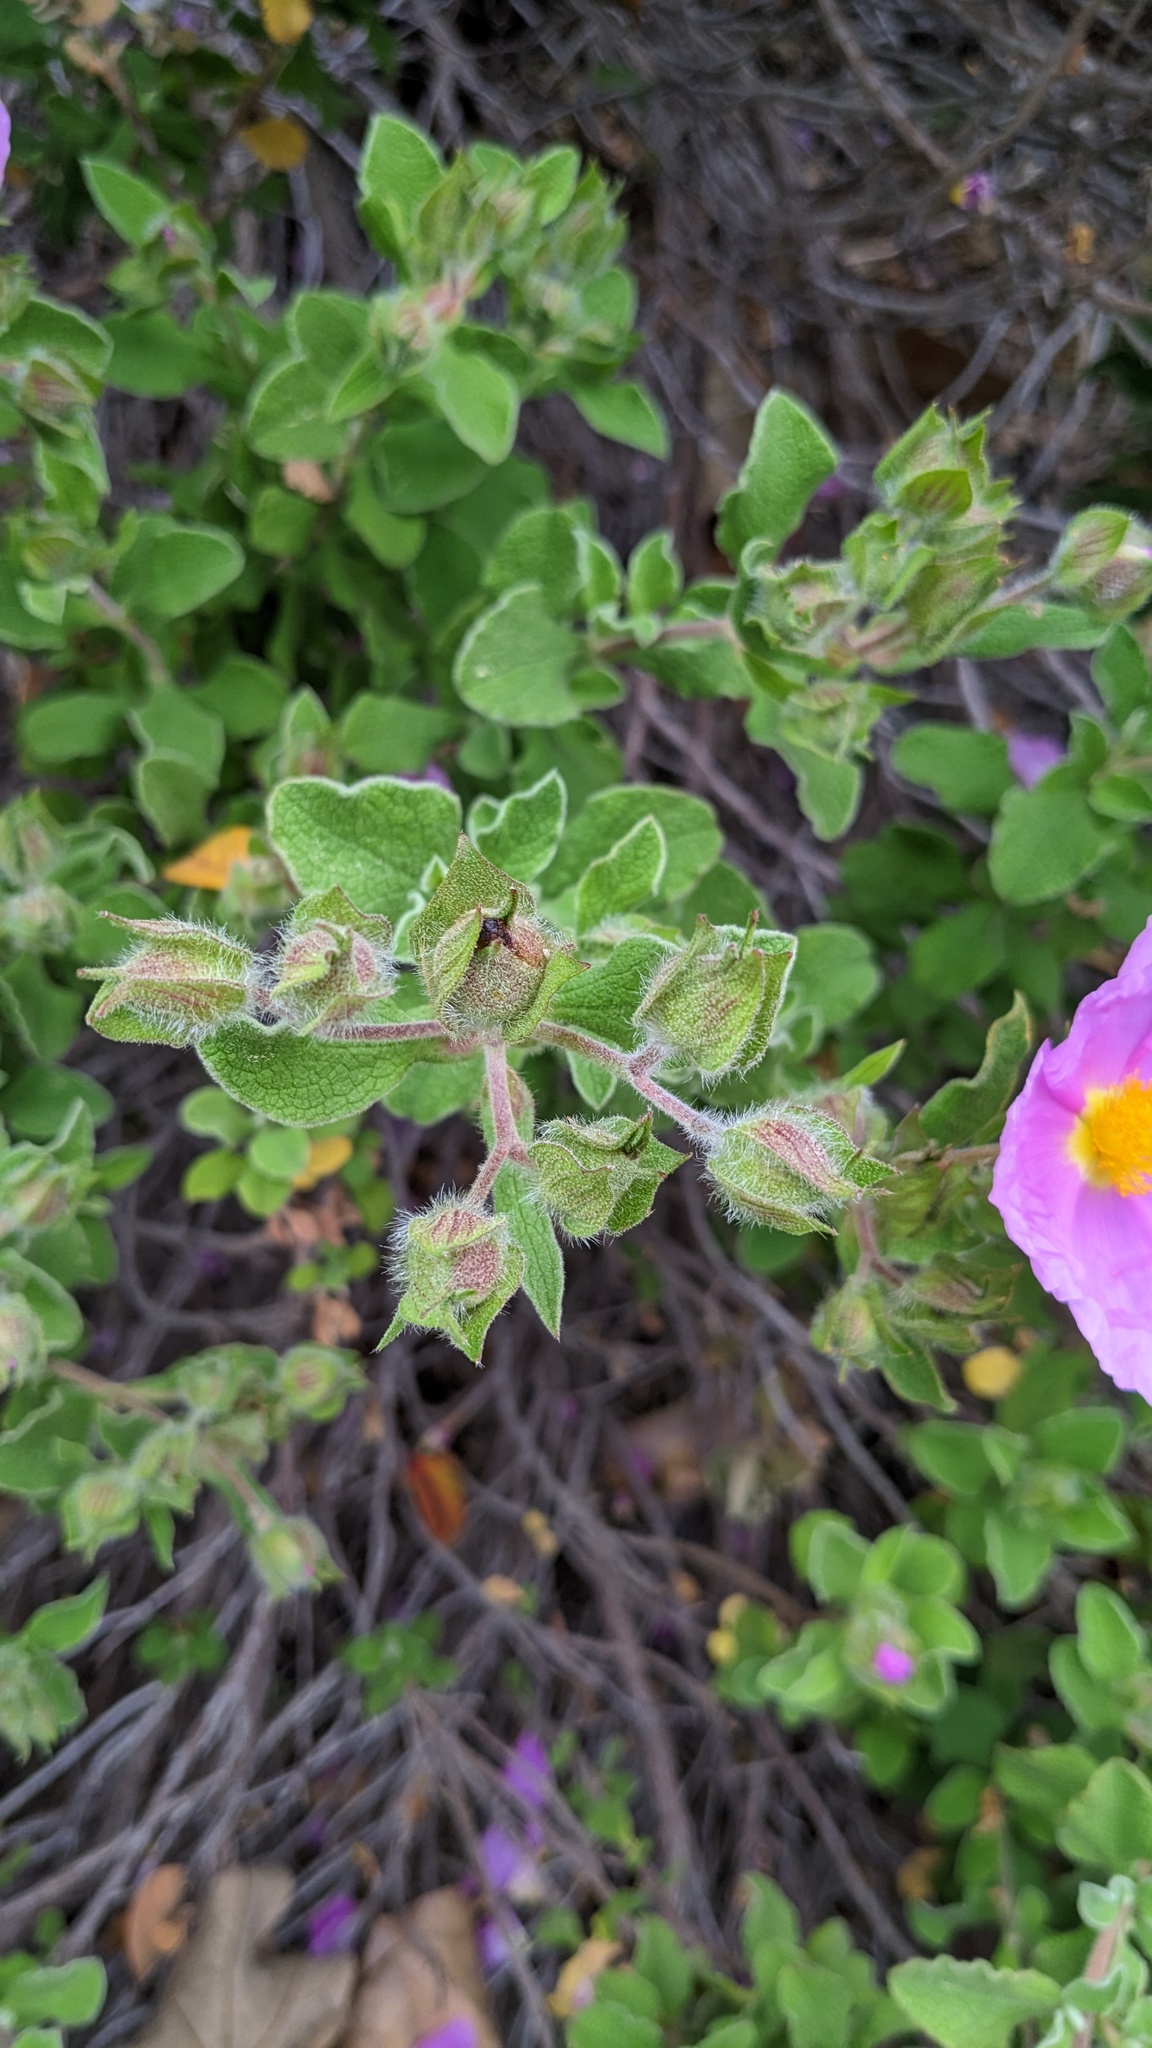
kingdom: Plantae
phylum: Tracheophyta
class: Magnoliopsida
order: Malvales
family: Cistaceae
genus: Cistus
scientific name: Cistus creticus
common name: Cretan rockrose
